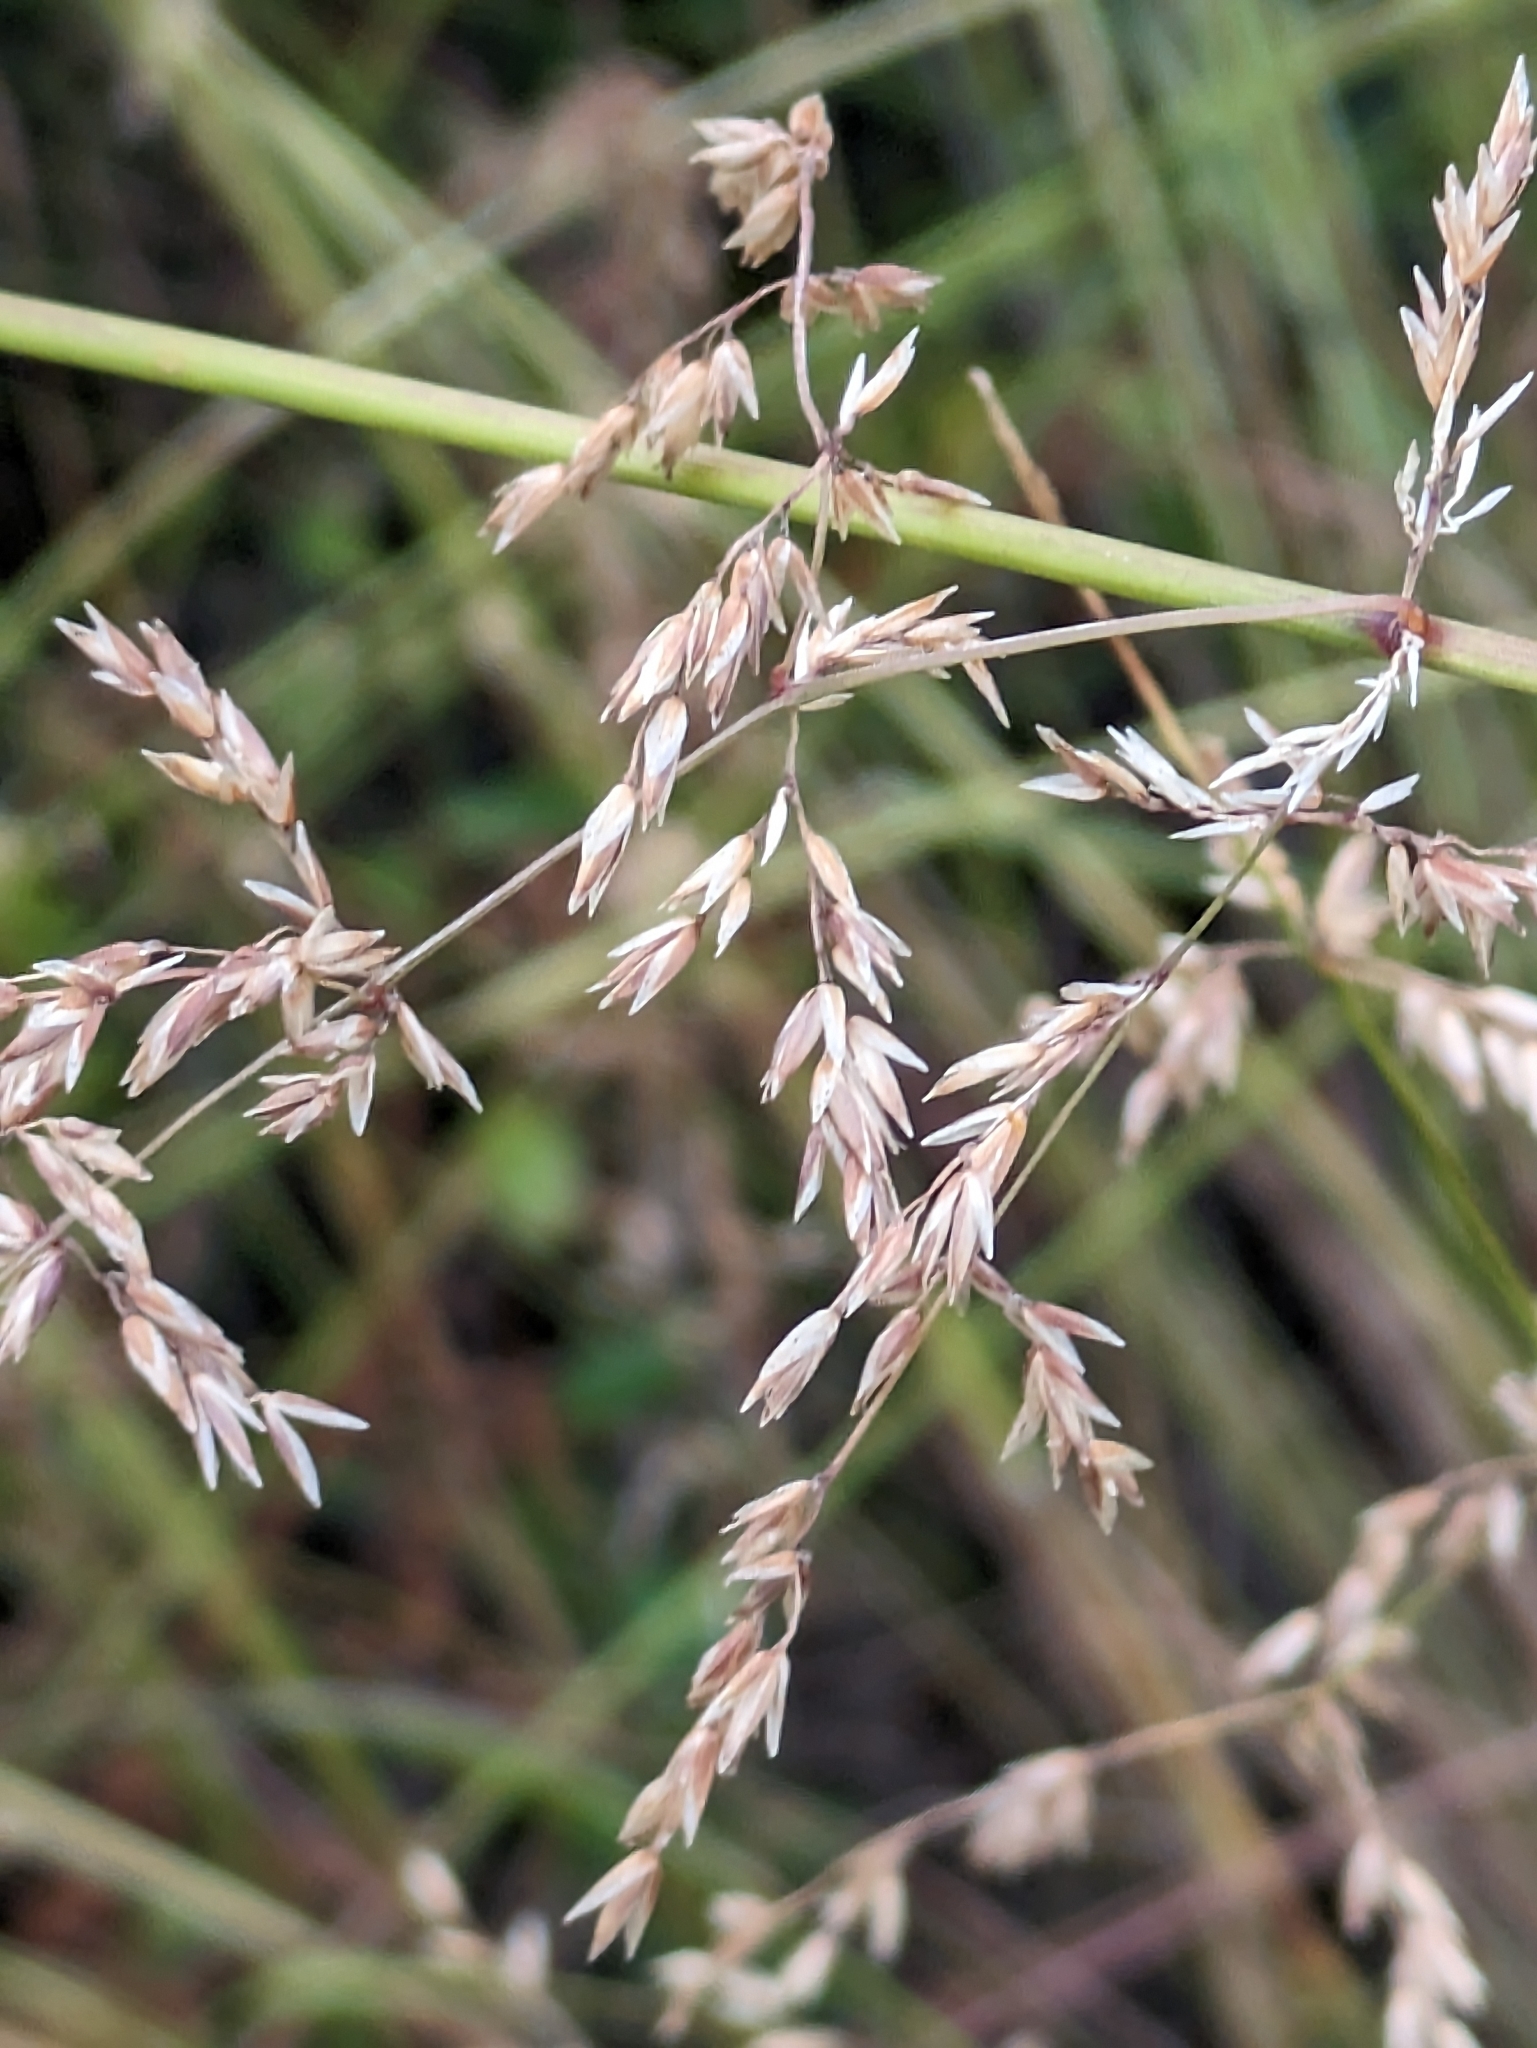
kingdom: Plantae
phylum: Tracheophyta
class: Liliopsida
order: Poales
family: Poaceae
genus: Melica
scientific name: Melica imperfecta
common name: California melic
